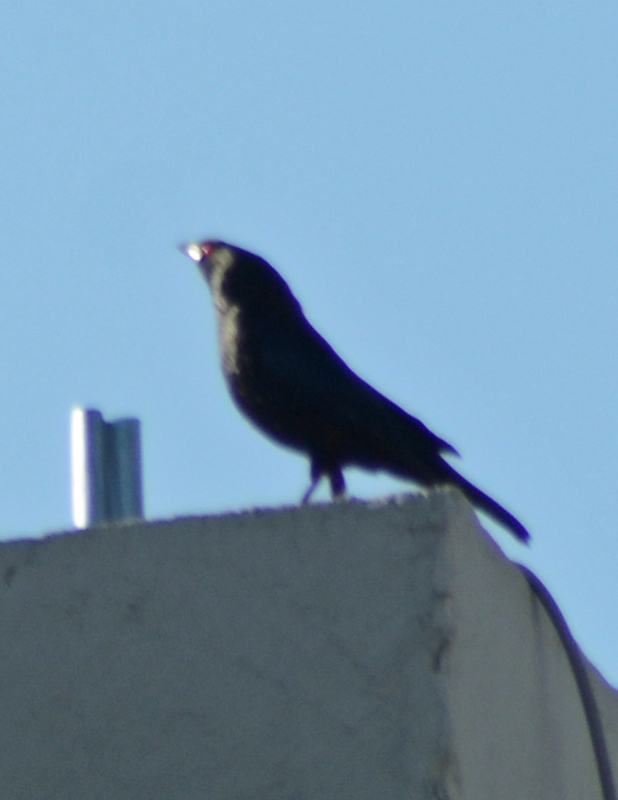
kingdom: Animalia
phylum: Chordata
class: Aves
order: Passeriformes
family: Icteridae
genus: Molothrus
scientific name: Molothrus aeneus
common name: Bronzed cowbird
